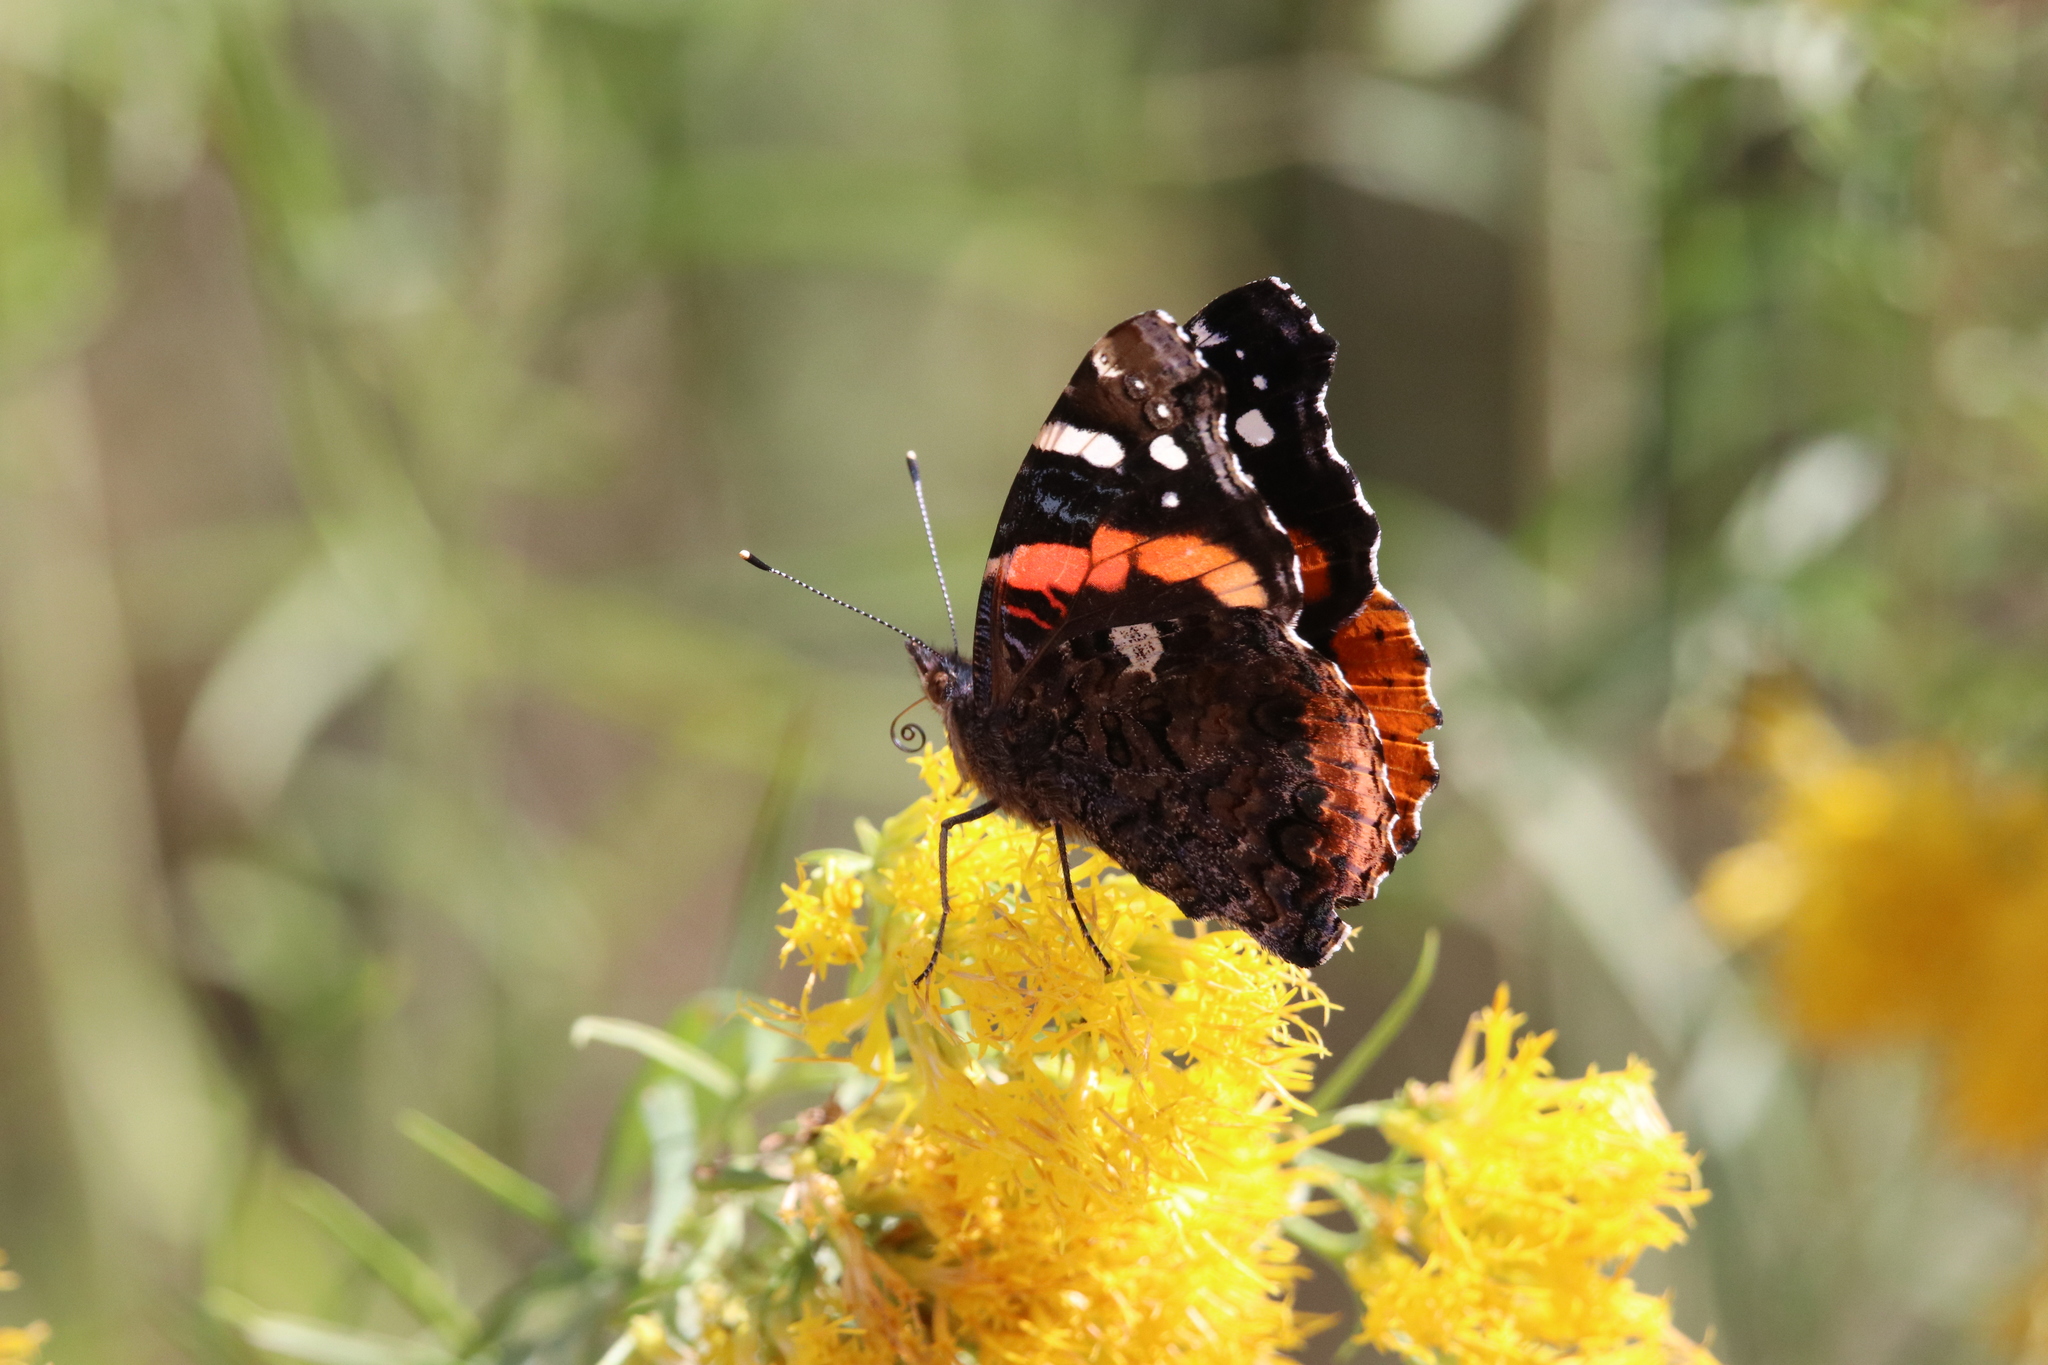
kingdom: Animalia
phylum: Arthropoda
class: Insecta
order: Lepidoptera
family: Nymphalidae
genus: Vanessa
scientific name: Vanessa atalanta
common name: Red admiral
